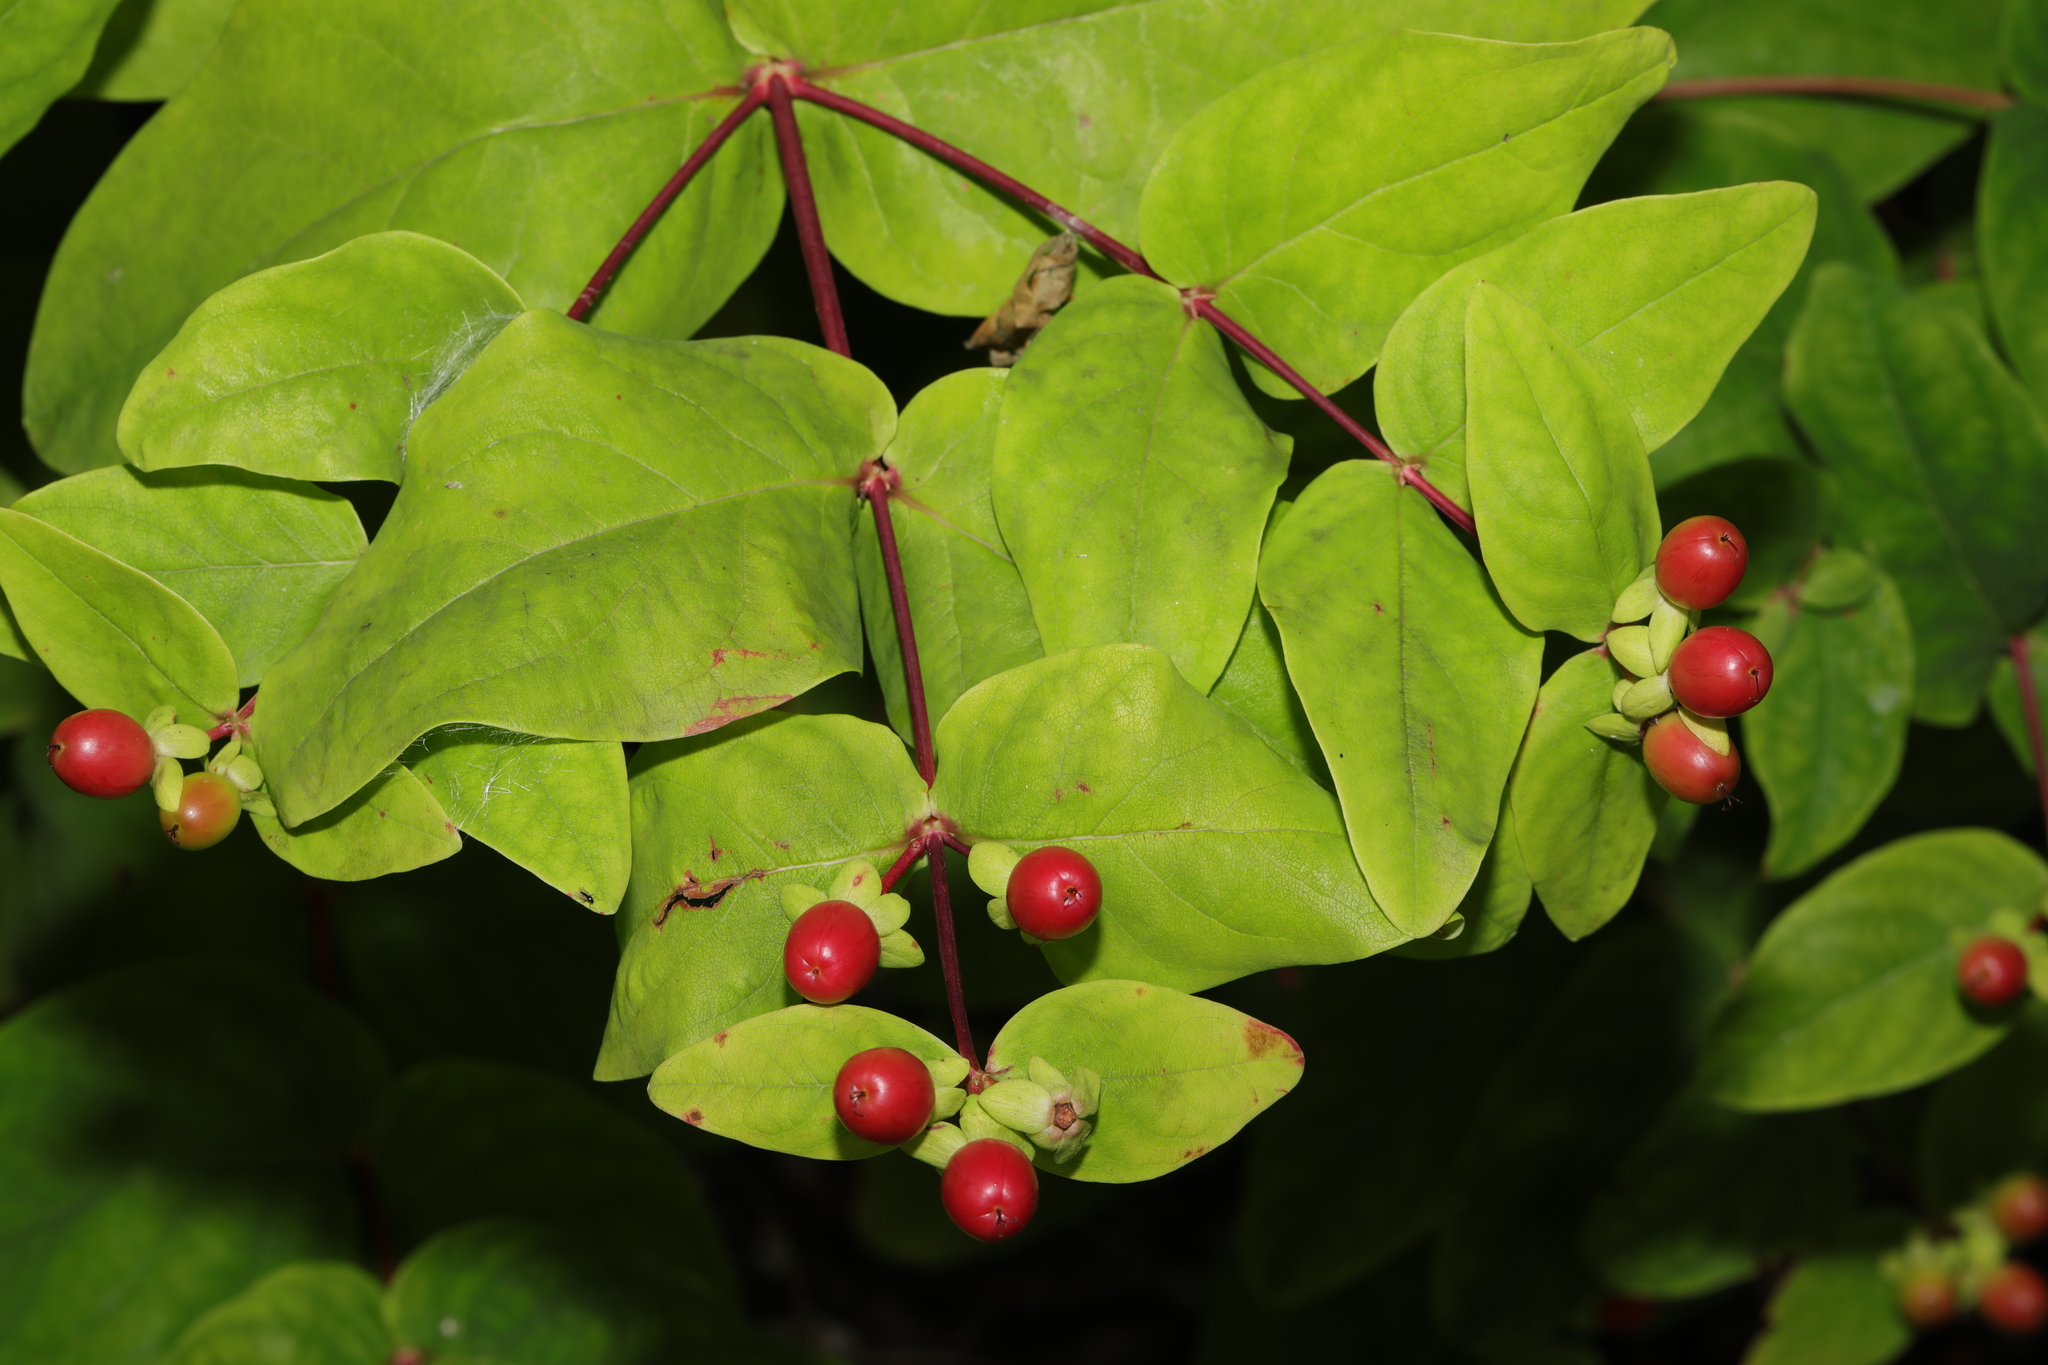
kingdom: Plantae
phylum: Tracheophyta
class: Magnoliopsida
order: Malpighiales
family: Hypericaceae
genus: Hypericum
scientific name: Hypericum androsaemum
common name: Sweet-amber
